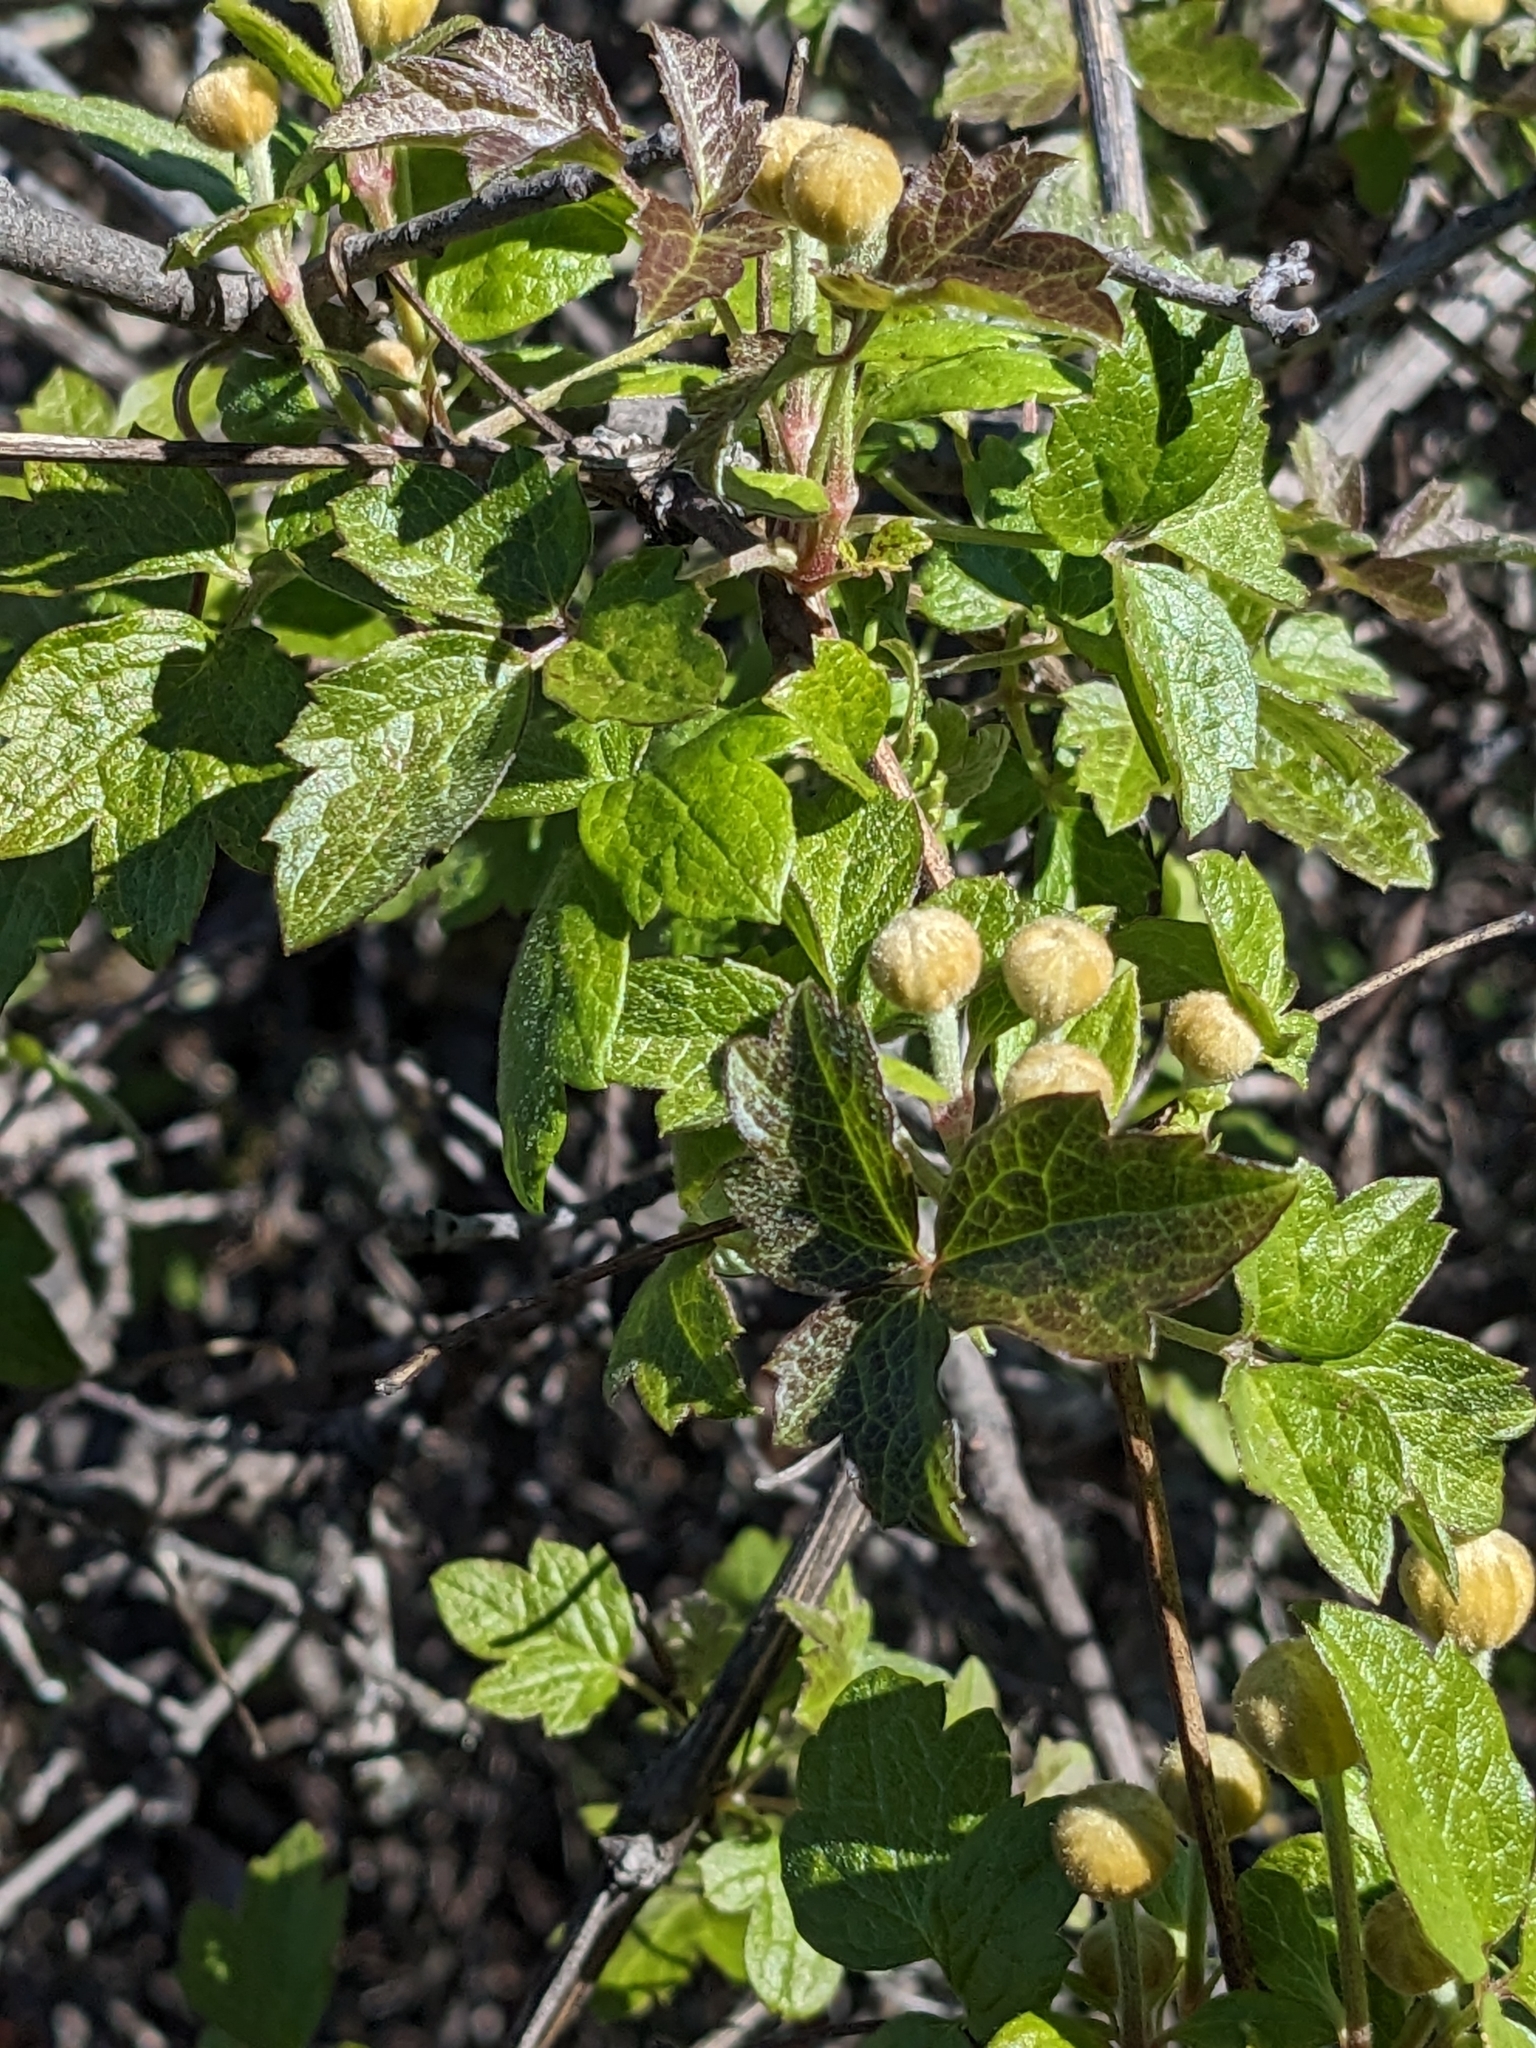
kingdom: Plantae
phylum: Tracheophyta
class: Magnoliopsida
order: Ranunculales
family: Ranunculaceae
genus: Clematis
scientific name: Clematis lasiantha
